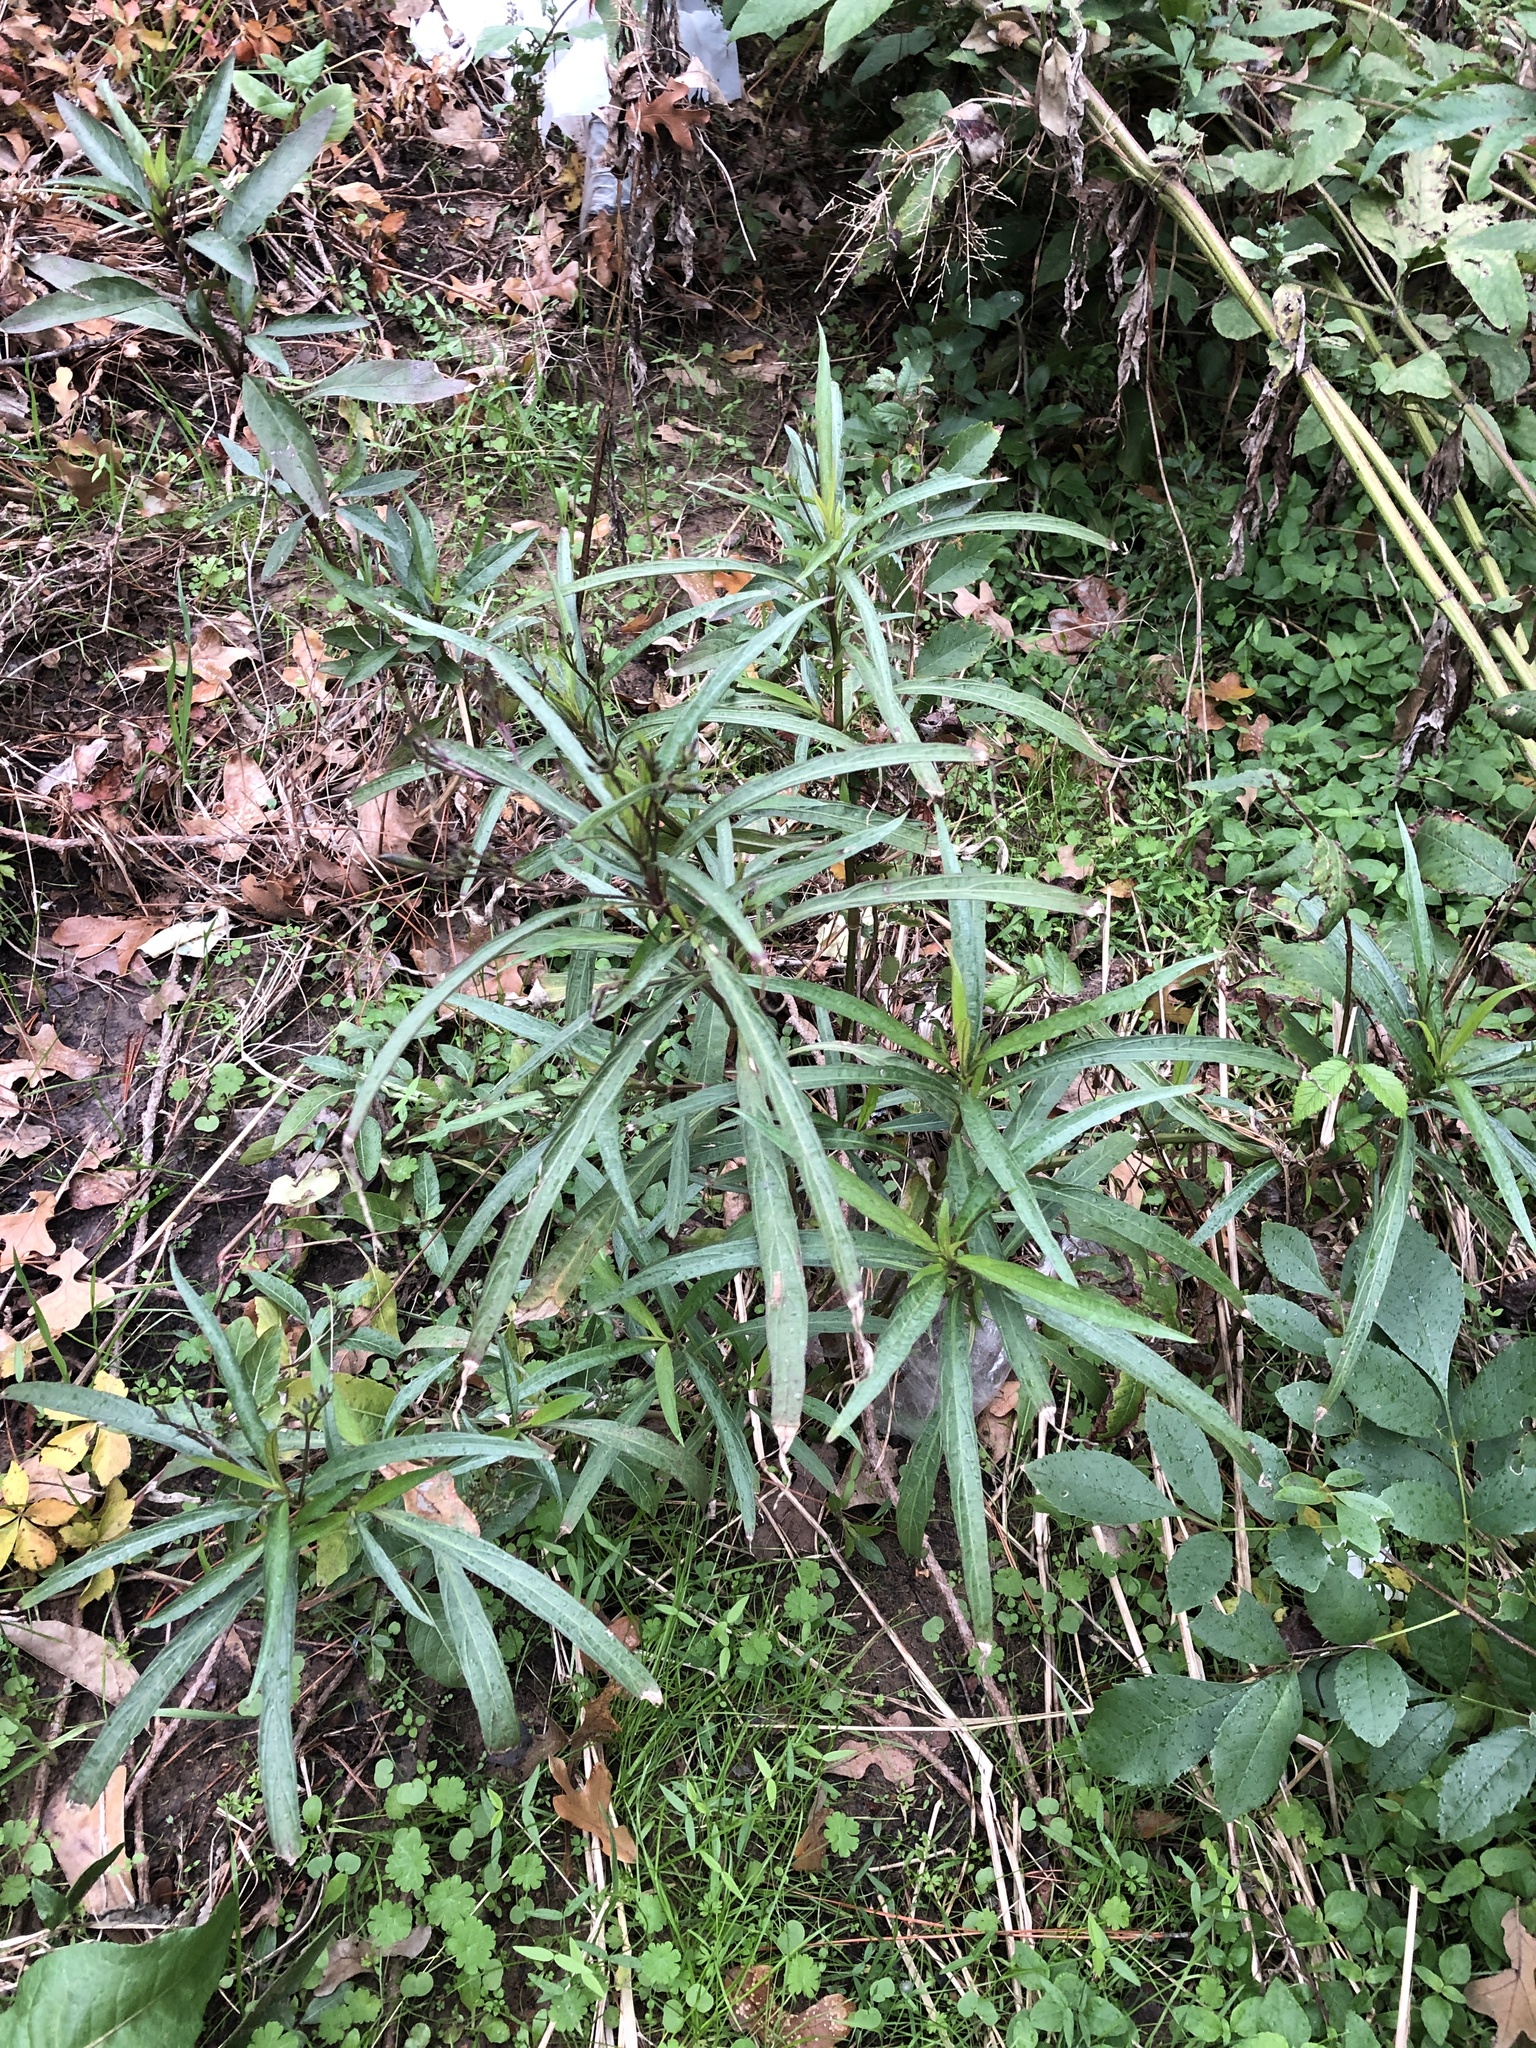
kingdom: Plantae
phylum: Tracheophyta
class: Magnoliopsida
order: Lamiales
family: Acanthaceae
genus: Ruellia
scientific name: Ruellia simplex
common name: Softseed wild petunia
